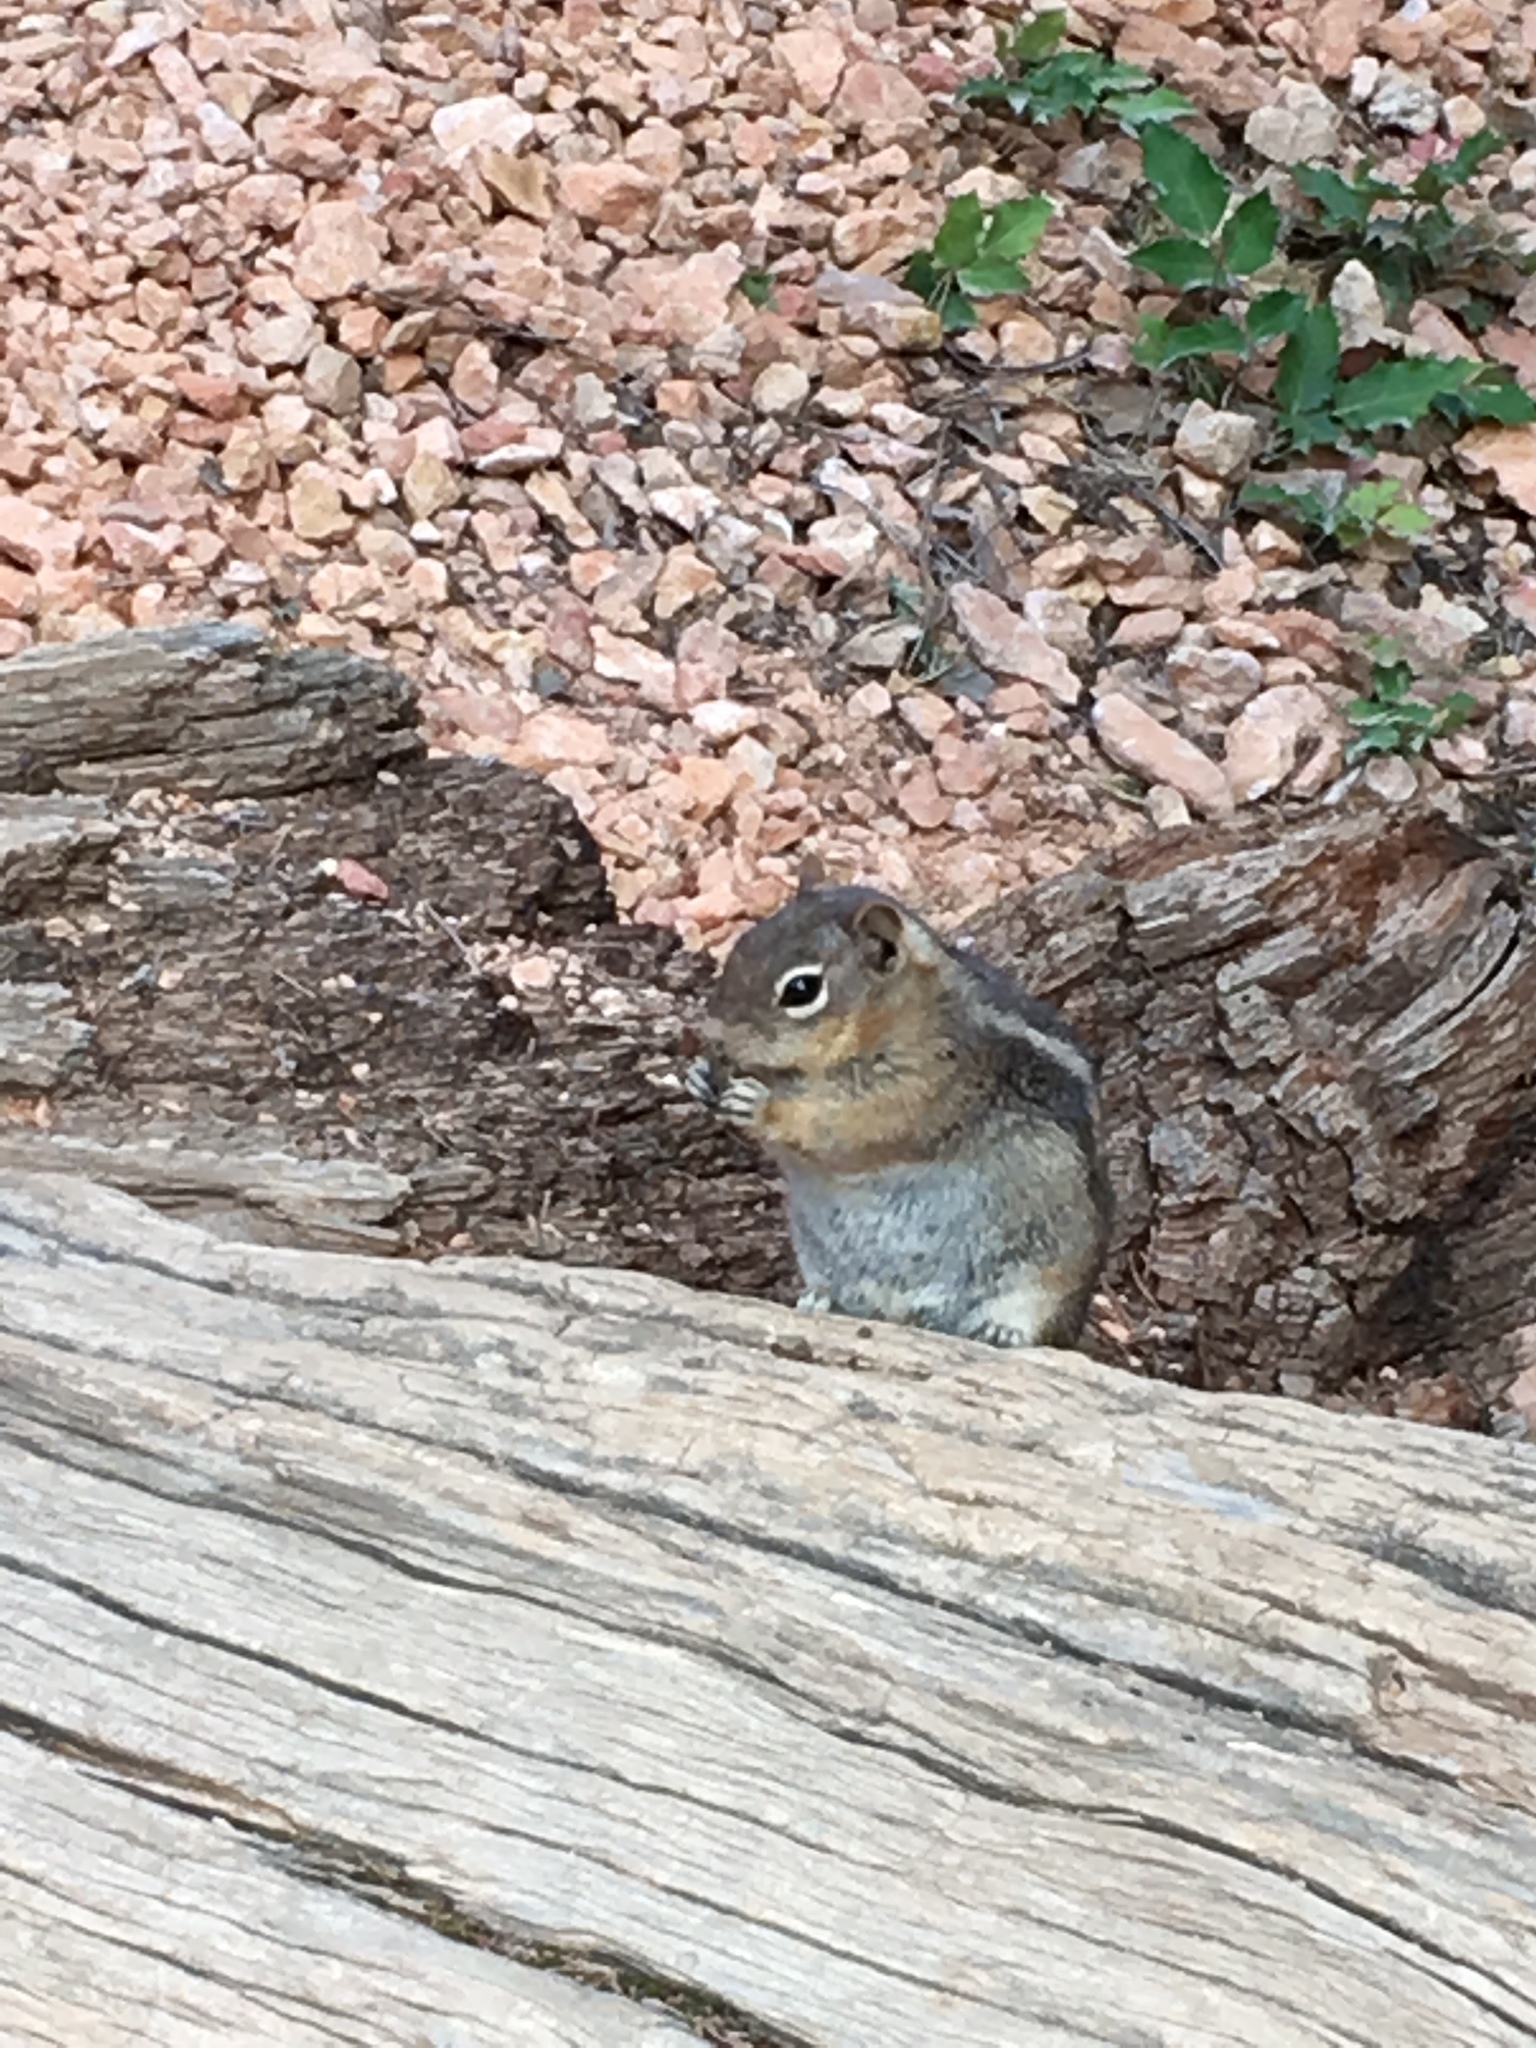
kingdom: Animalia
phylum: Chordata
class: Mammalia
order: Rodentia
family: Sciuridae
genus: Callospermophilus
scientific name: Callospermophilus lateralis
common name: Golden-mantled ground squirrel
